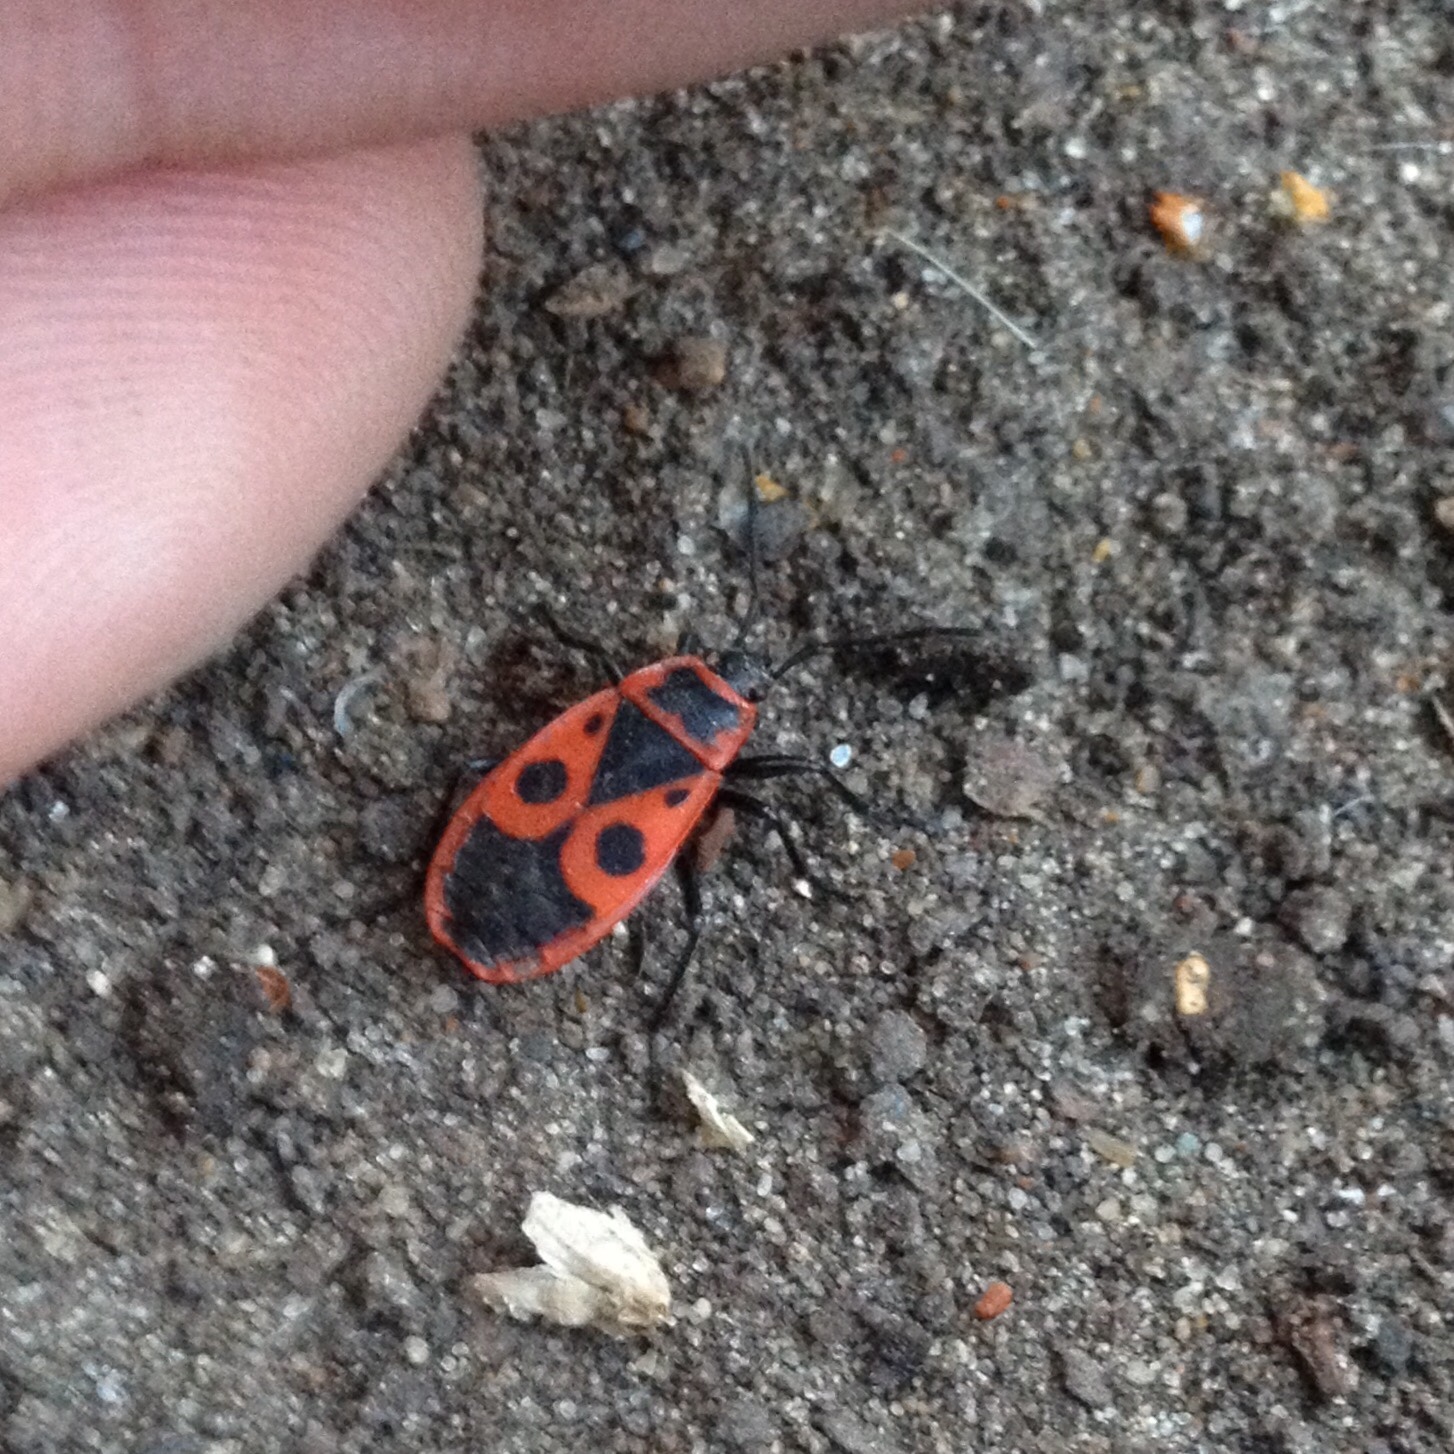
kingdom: Animalia
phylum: Arthropoda
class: Insecta
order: Hemiptera
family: Pyrrhocoridae
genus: Pyrrhocoris
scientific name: Pyrrhocoris apterus
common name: Firebug
